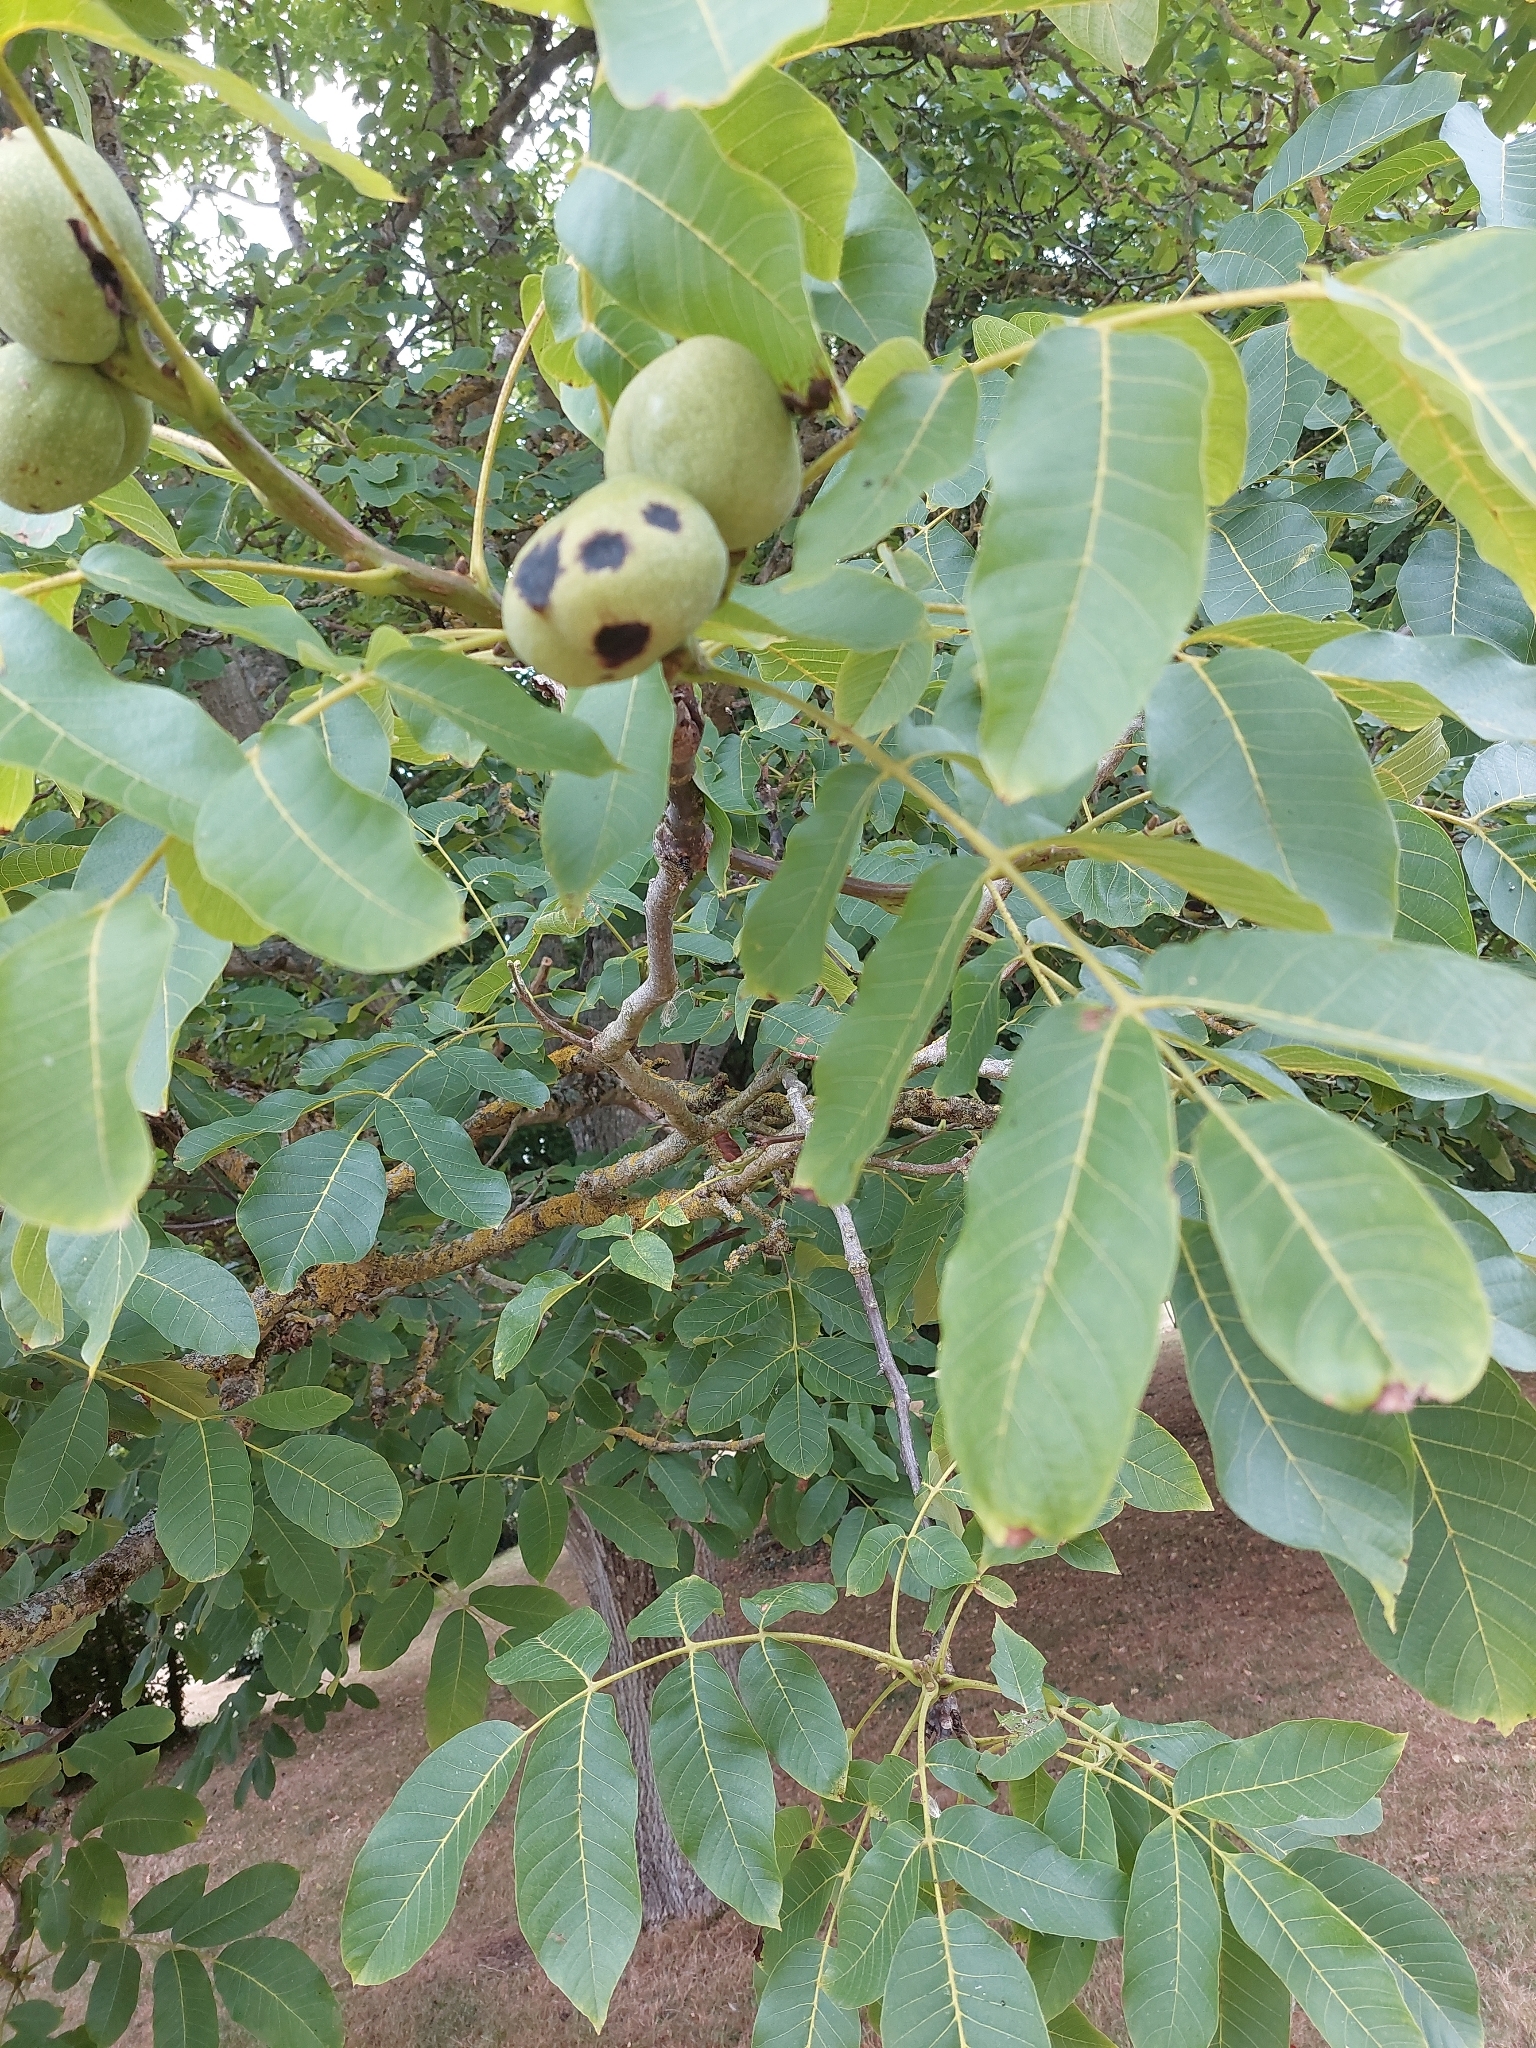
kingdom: Plantae
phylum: Tracheophyta
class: Magnoliopsida
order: Fagales
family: Juglandaceae
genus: Juglans
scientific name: Juglans regia
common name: Walnut
